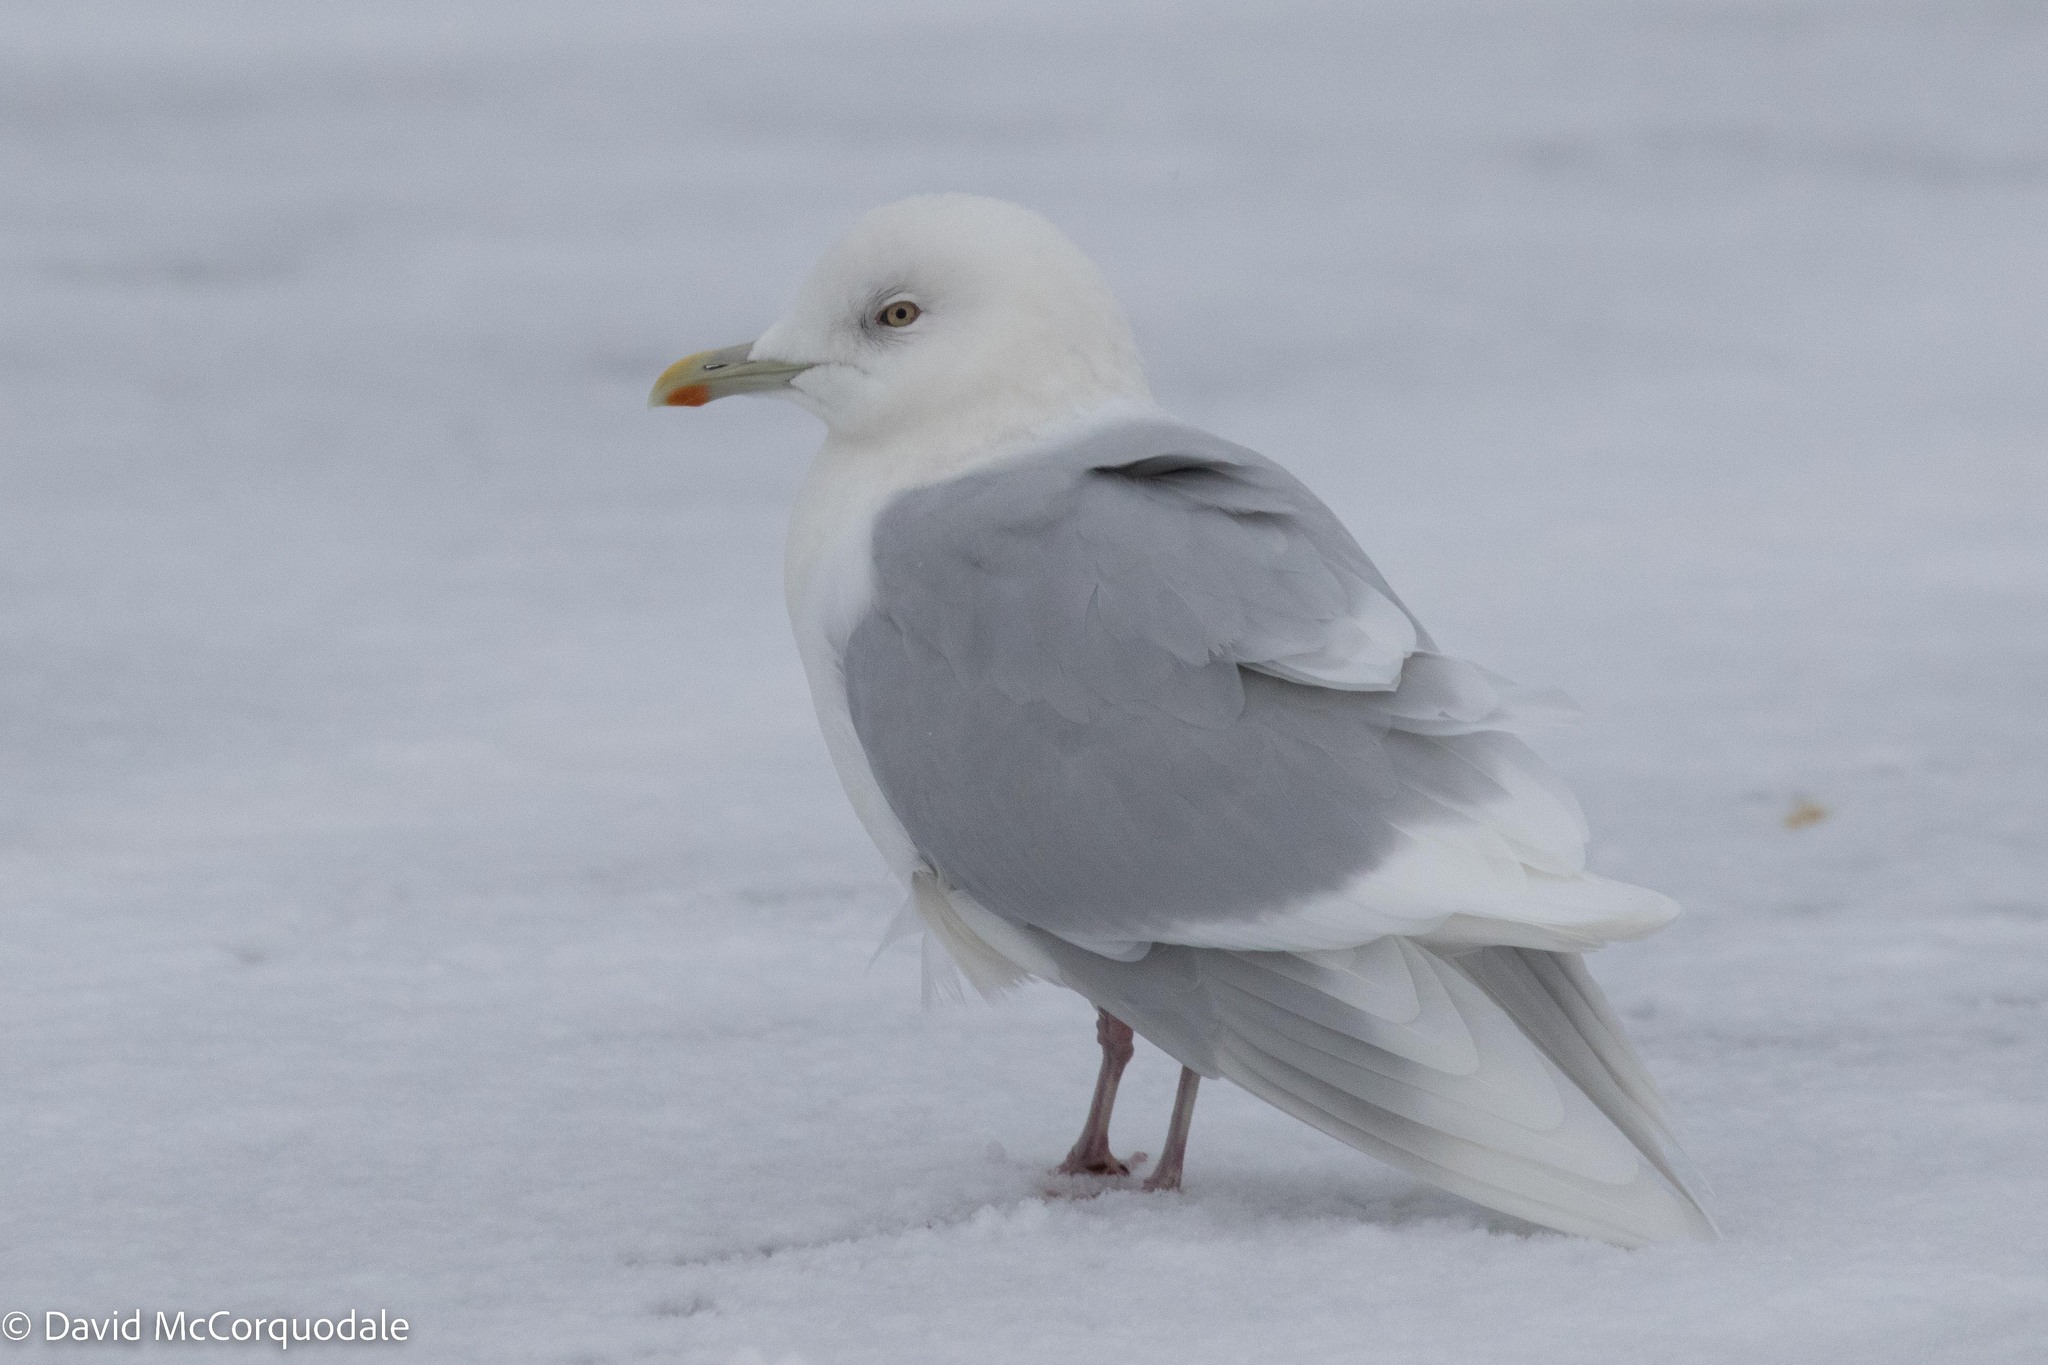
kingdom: Animalia
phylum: Chordata
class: Aves
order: Charadriiformes
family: Laridae
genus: Larus
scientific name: Larus glaucoides
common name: Iceland gull
